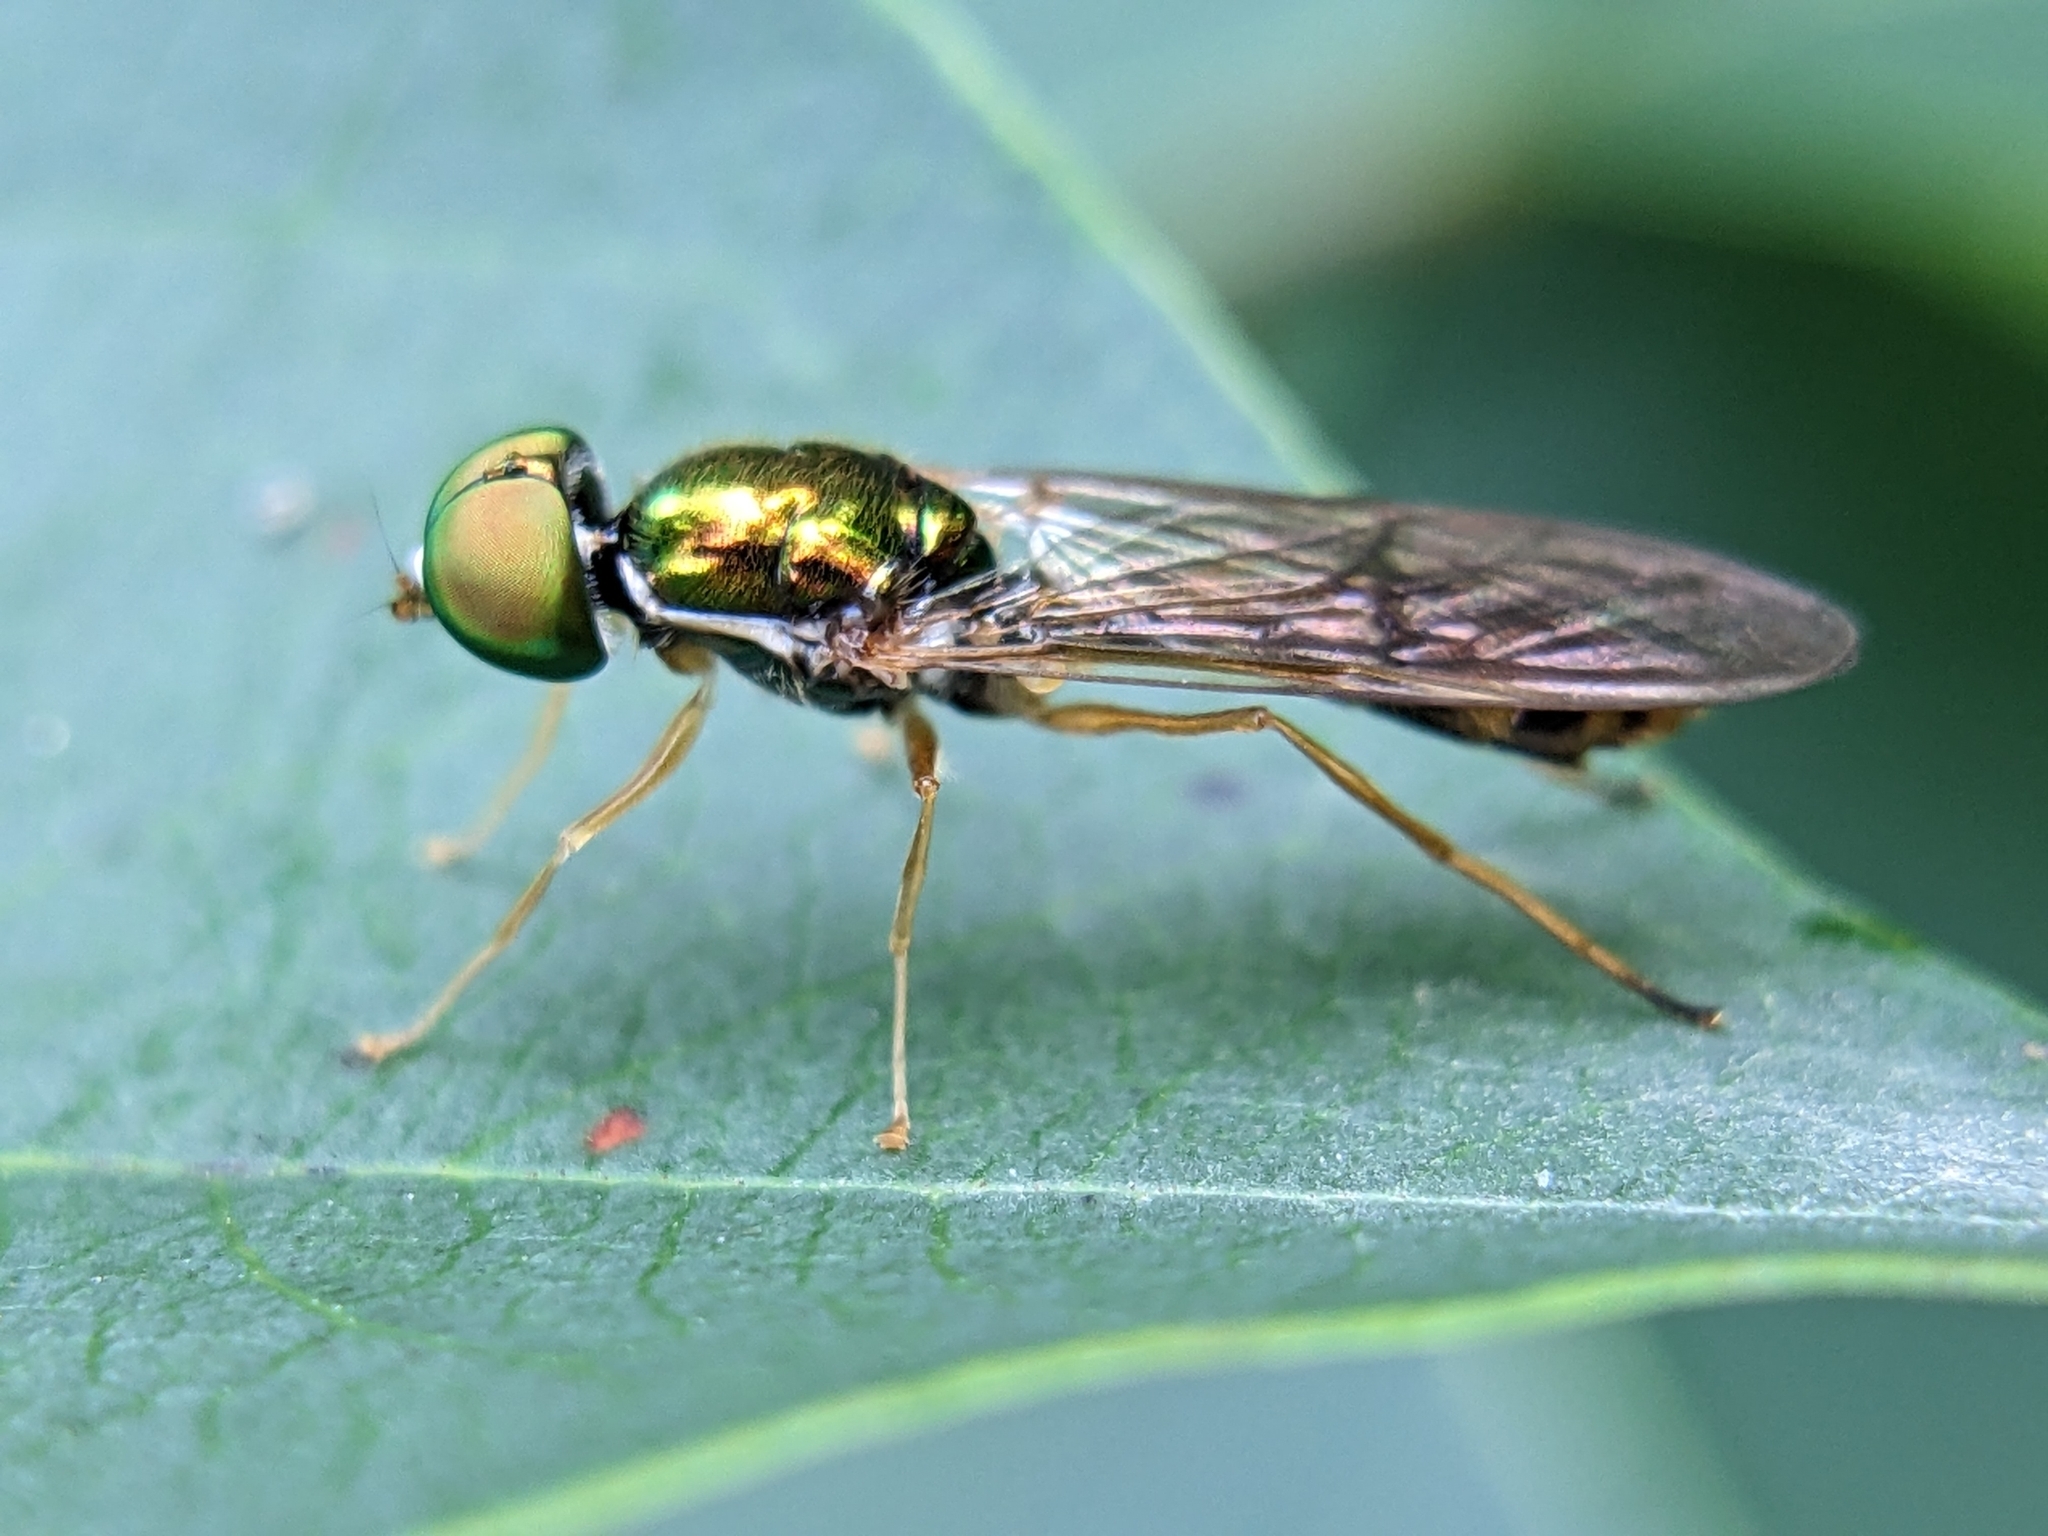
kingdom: Animalia
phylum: Arthropoda
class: Insecta
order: Diptera
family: Stratiomyidae
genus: Sargus
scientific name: Sargus fasciatus
